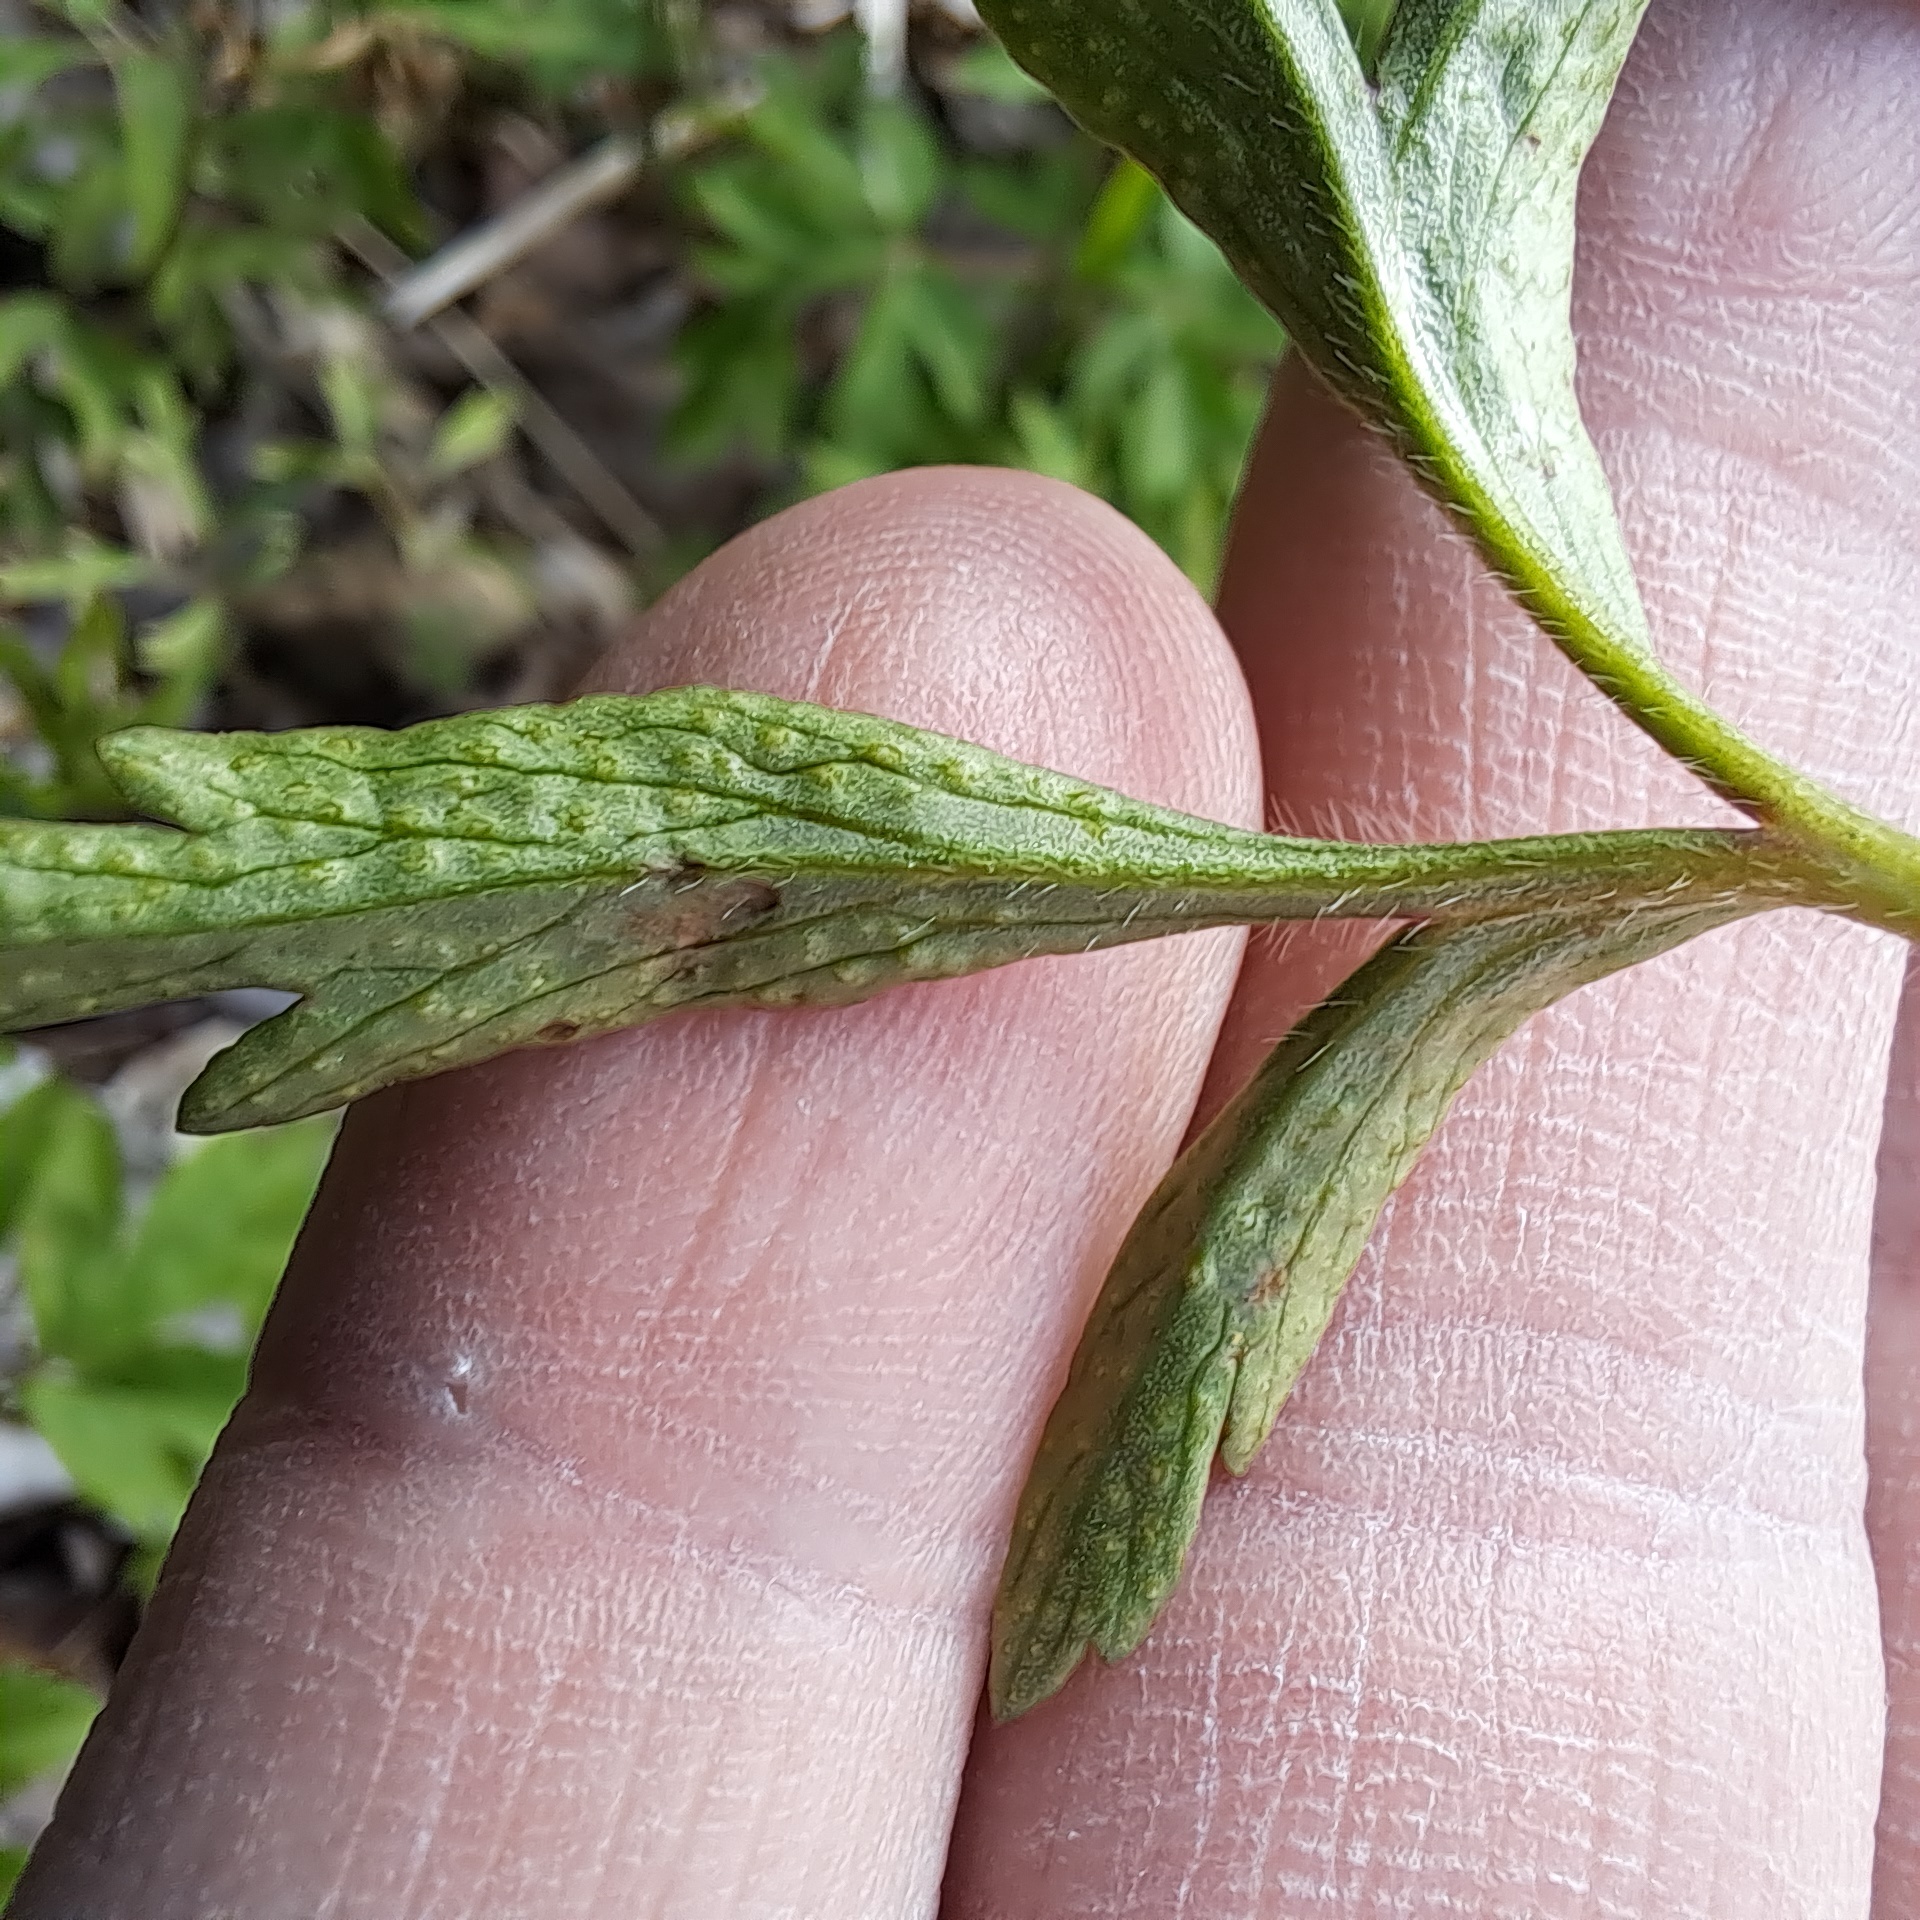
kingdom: Fungi
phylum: Basidiomycota
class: Pucciniomycetes
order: Pucciniales
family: Ochropsoraceae
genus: Ochropsora
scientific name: Ochropsora ariae
